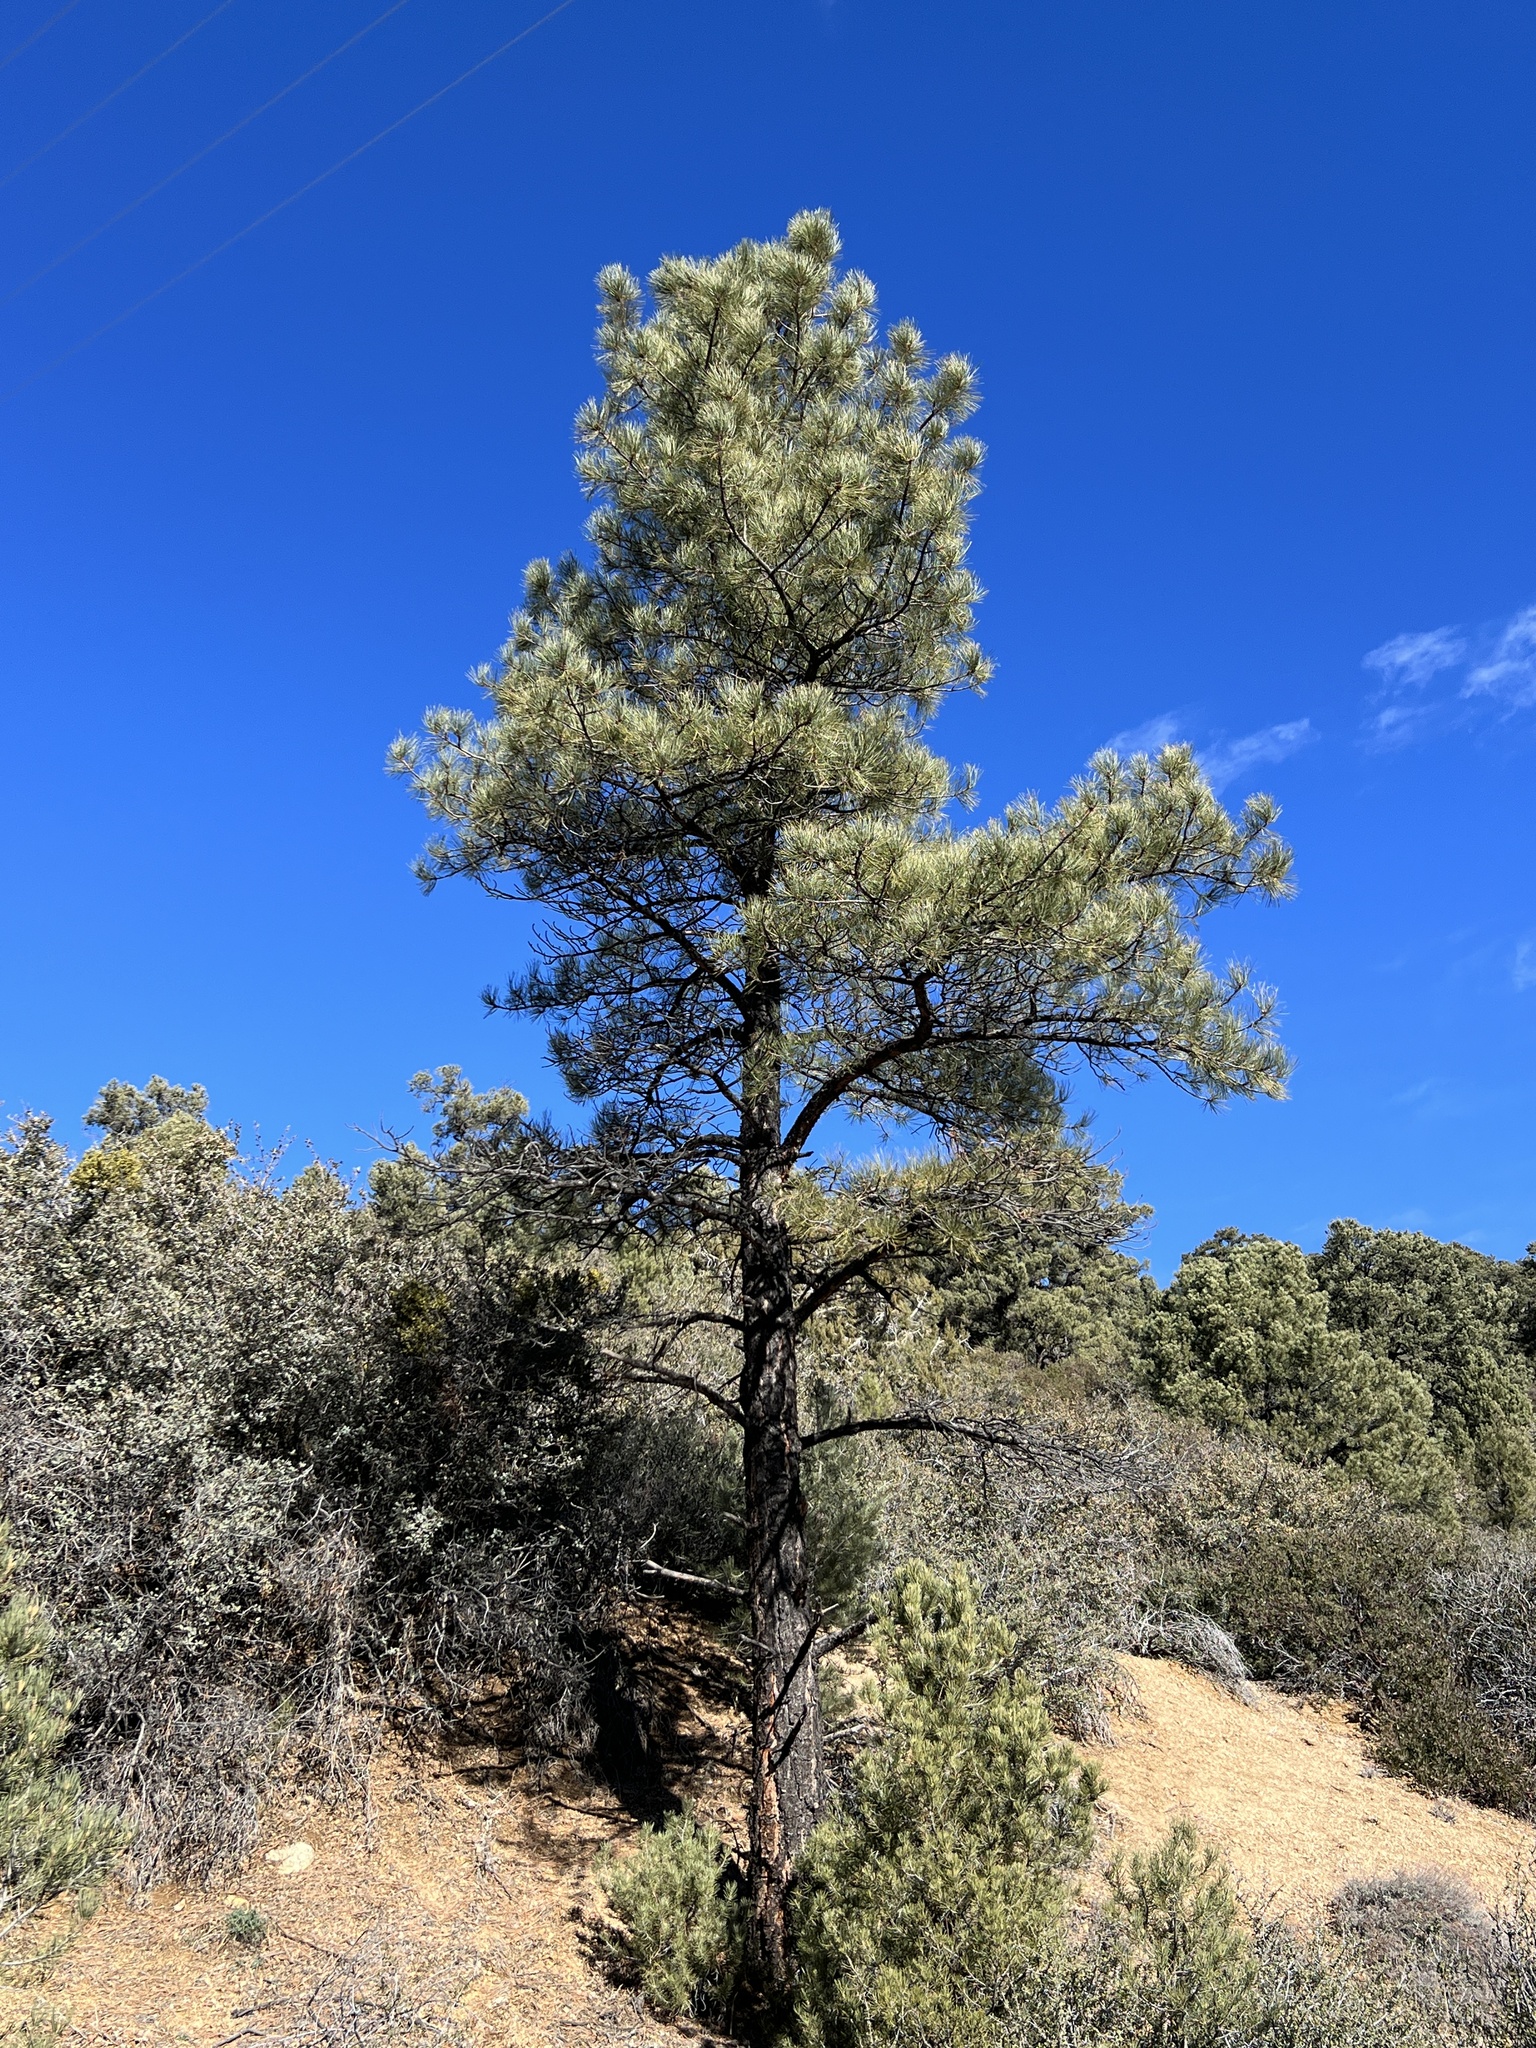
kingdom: Plantae
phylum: Tracheophyta
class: Pinopsida
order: Pinales
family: Pinaceae
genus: Pinus
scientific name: Pinus ponderosa
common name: Western yellow-pine
